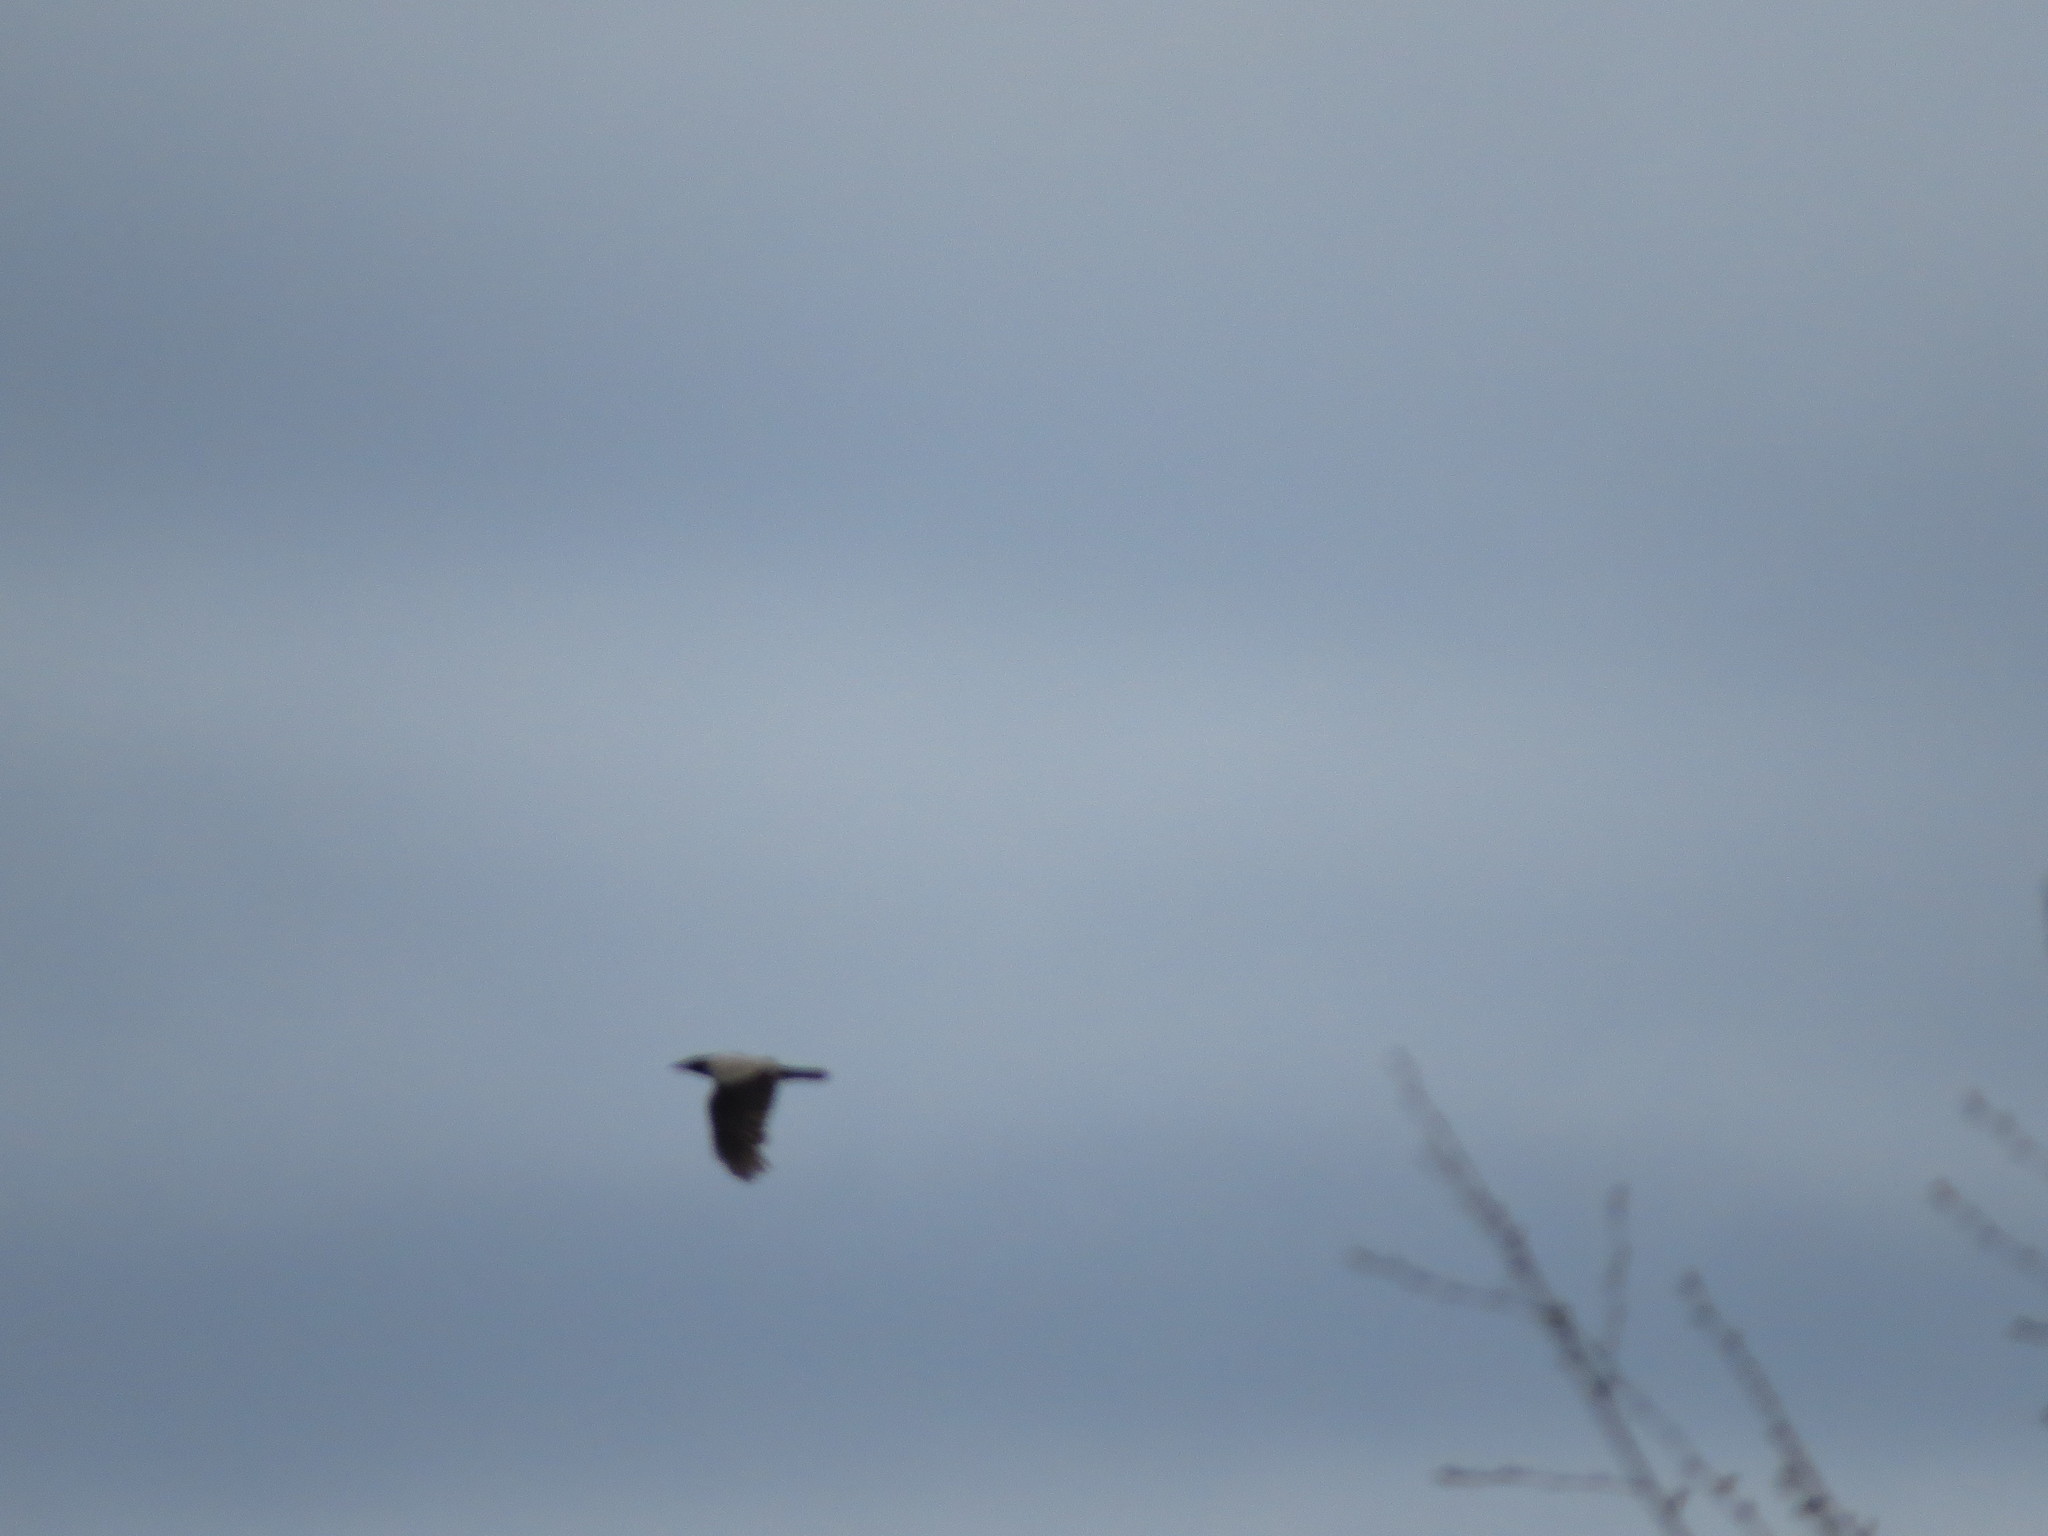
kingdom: Animalia
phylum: Chordata
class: Aves
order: Passeriformes
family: Corvidae
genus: Corvus
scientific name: Corvus cornix
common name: Hooded crow
